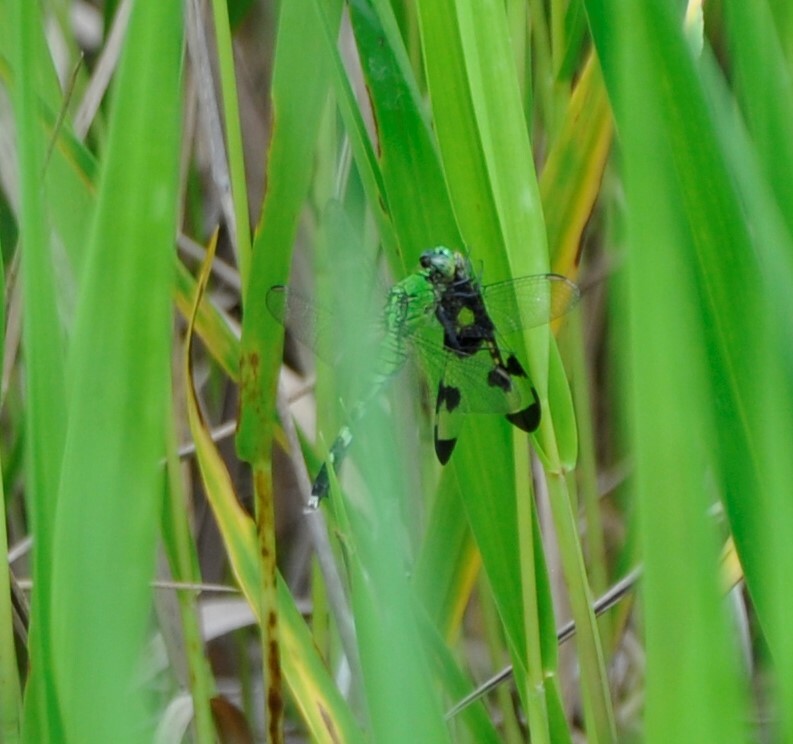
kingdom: Animalia
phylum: Arthropoda
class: Insecta
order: Odonata
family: Libellulidae
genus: Erythemis
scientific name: Erythemis simplicicollis
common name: Eastern pondhawk
